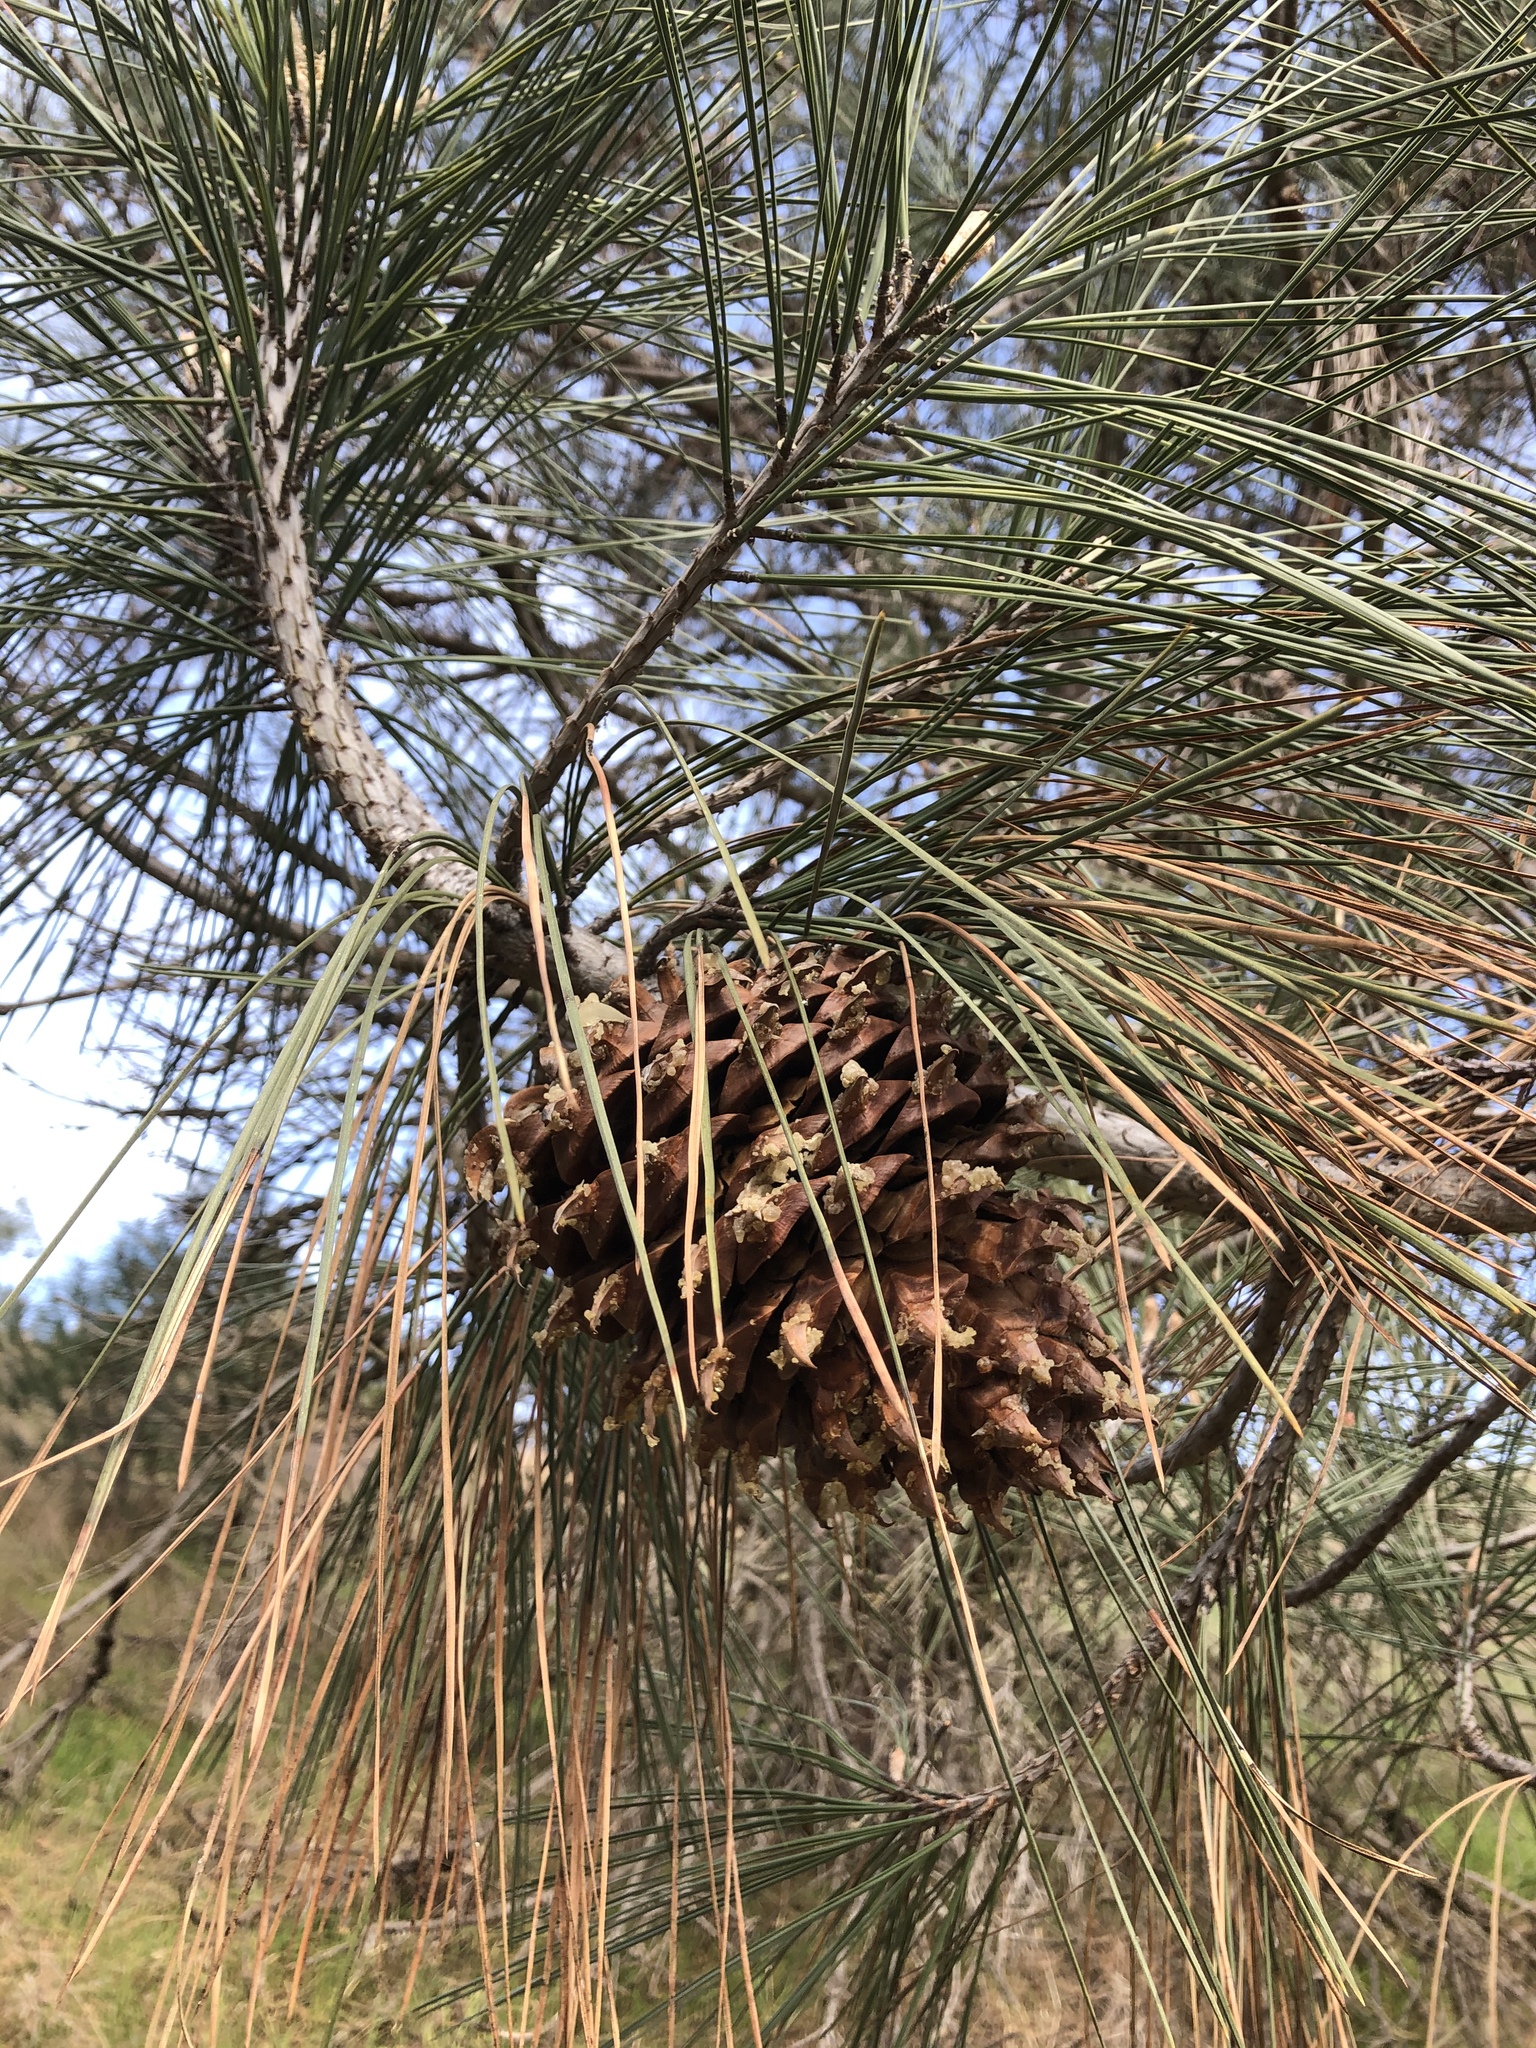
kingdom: Plantae
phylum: Tracheophyta
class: Pinopsida
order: Pinales
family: Pinaceae
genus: Pinus
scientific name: Pinus sabiniana
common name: Bull pine
